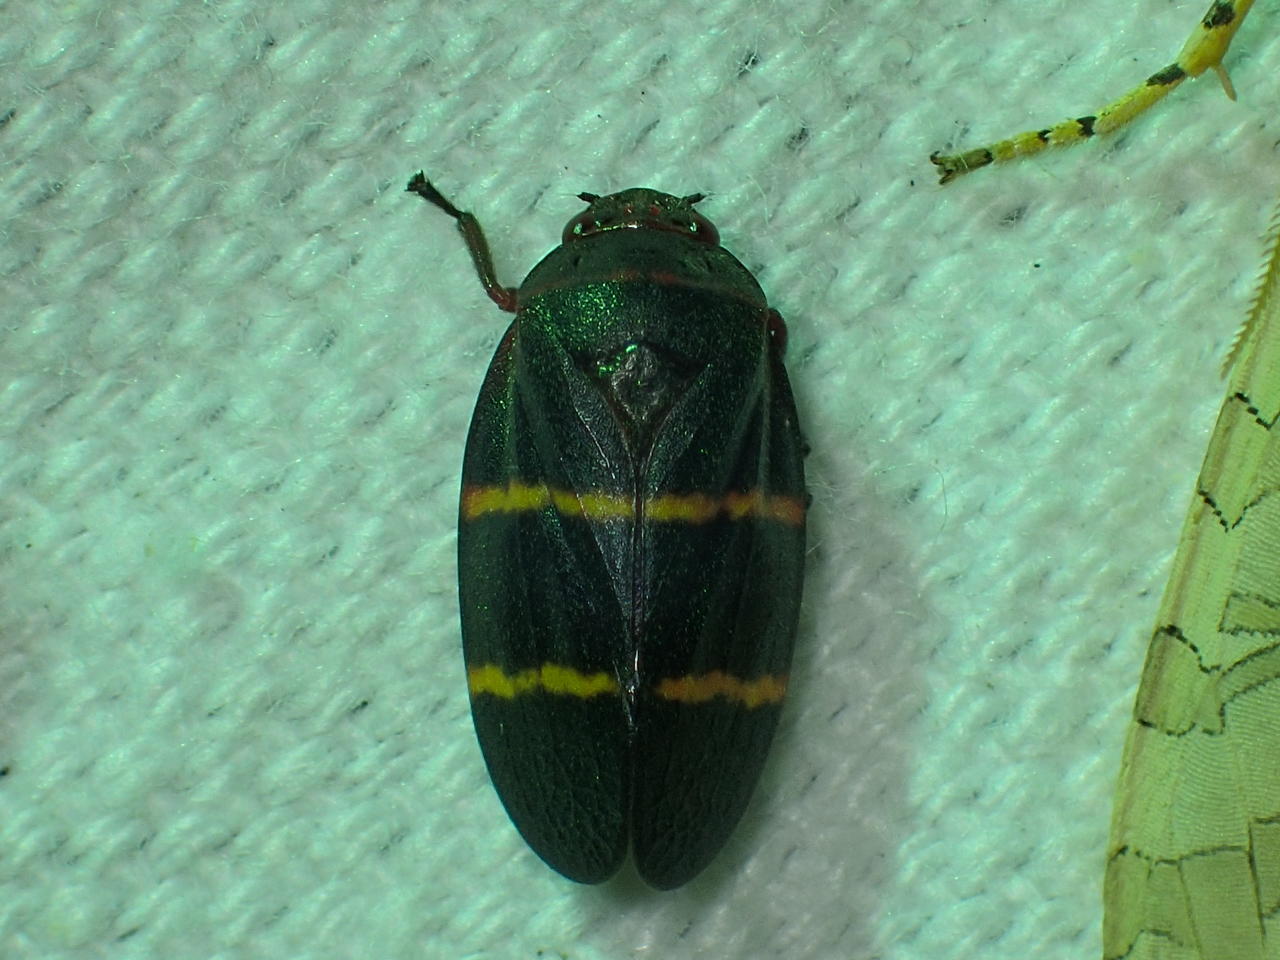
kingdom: Animalia
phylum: Arthropoda
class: Insecta
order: Hemiptera
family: Cercopidae
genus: Prosapia
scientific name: Prosapia bicincta
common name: Twolined spittlebug
